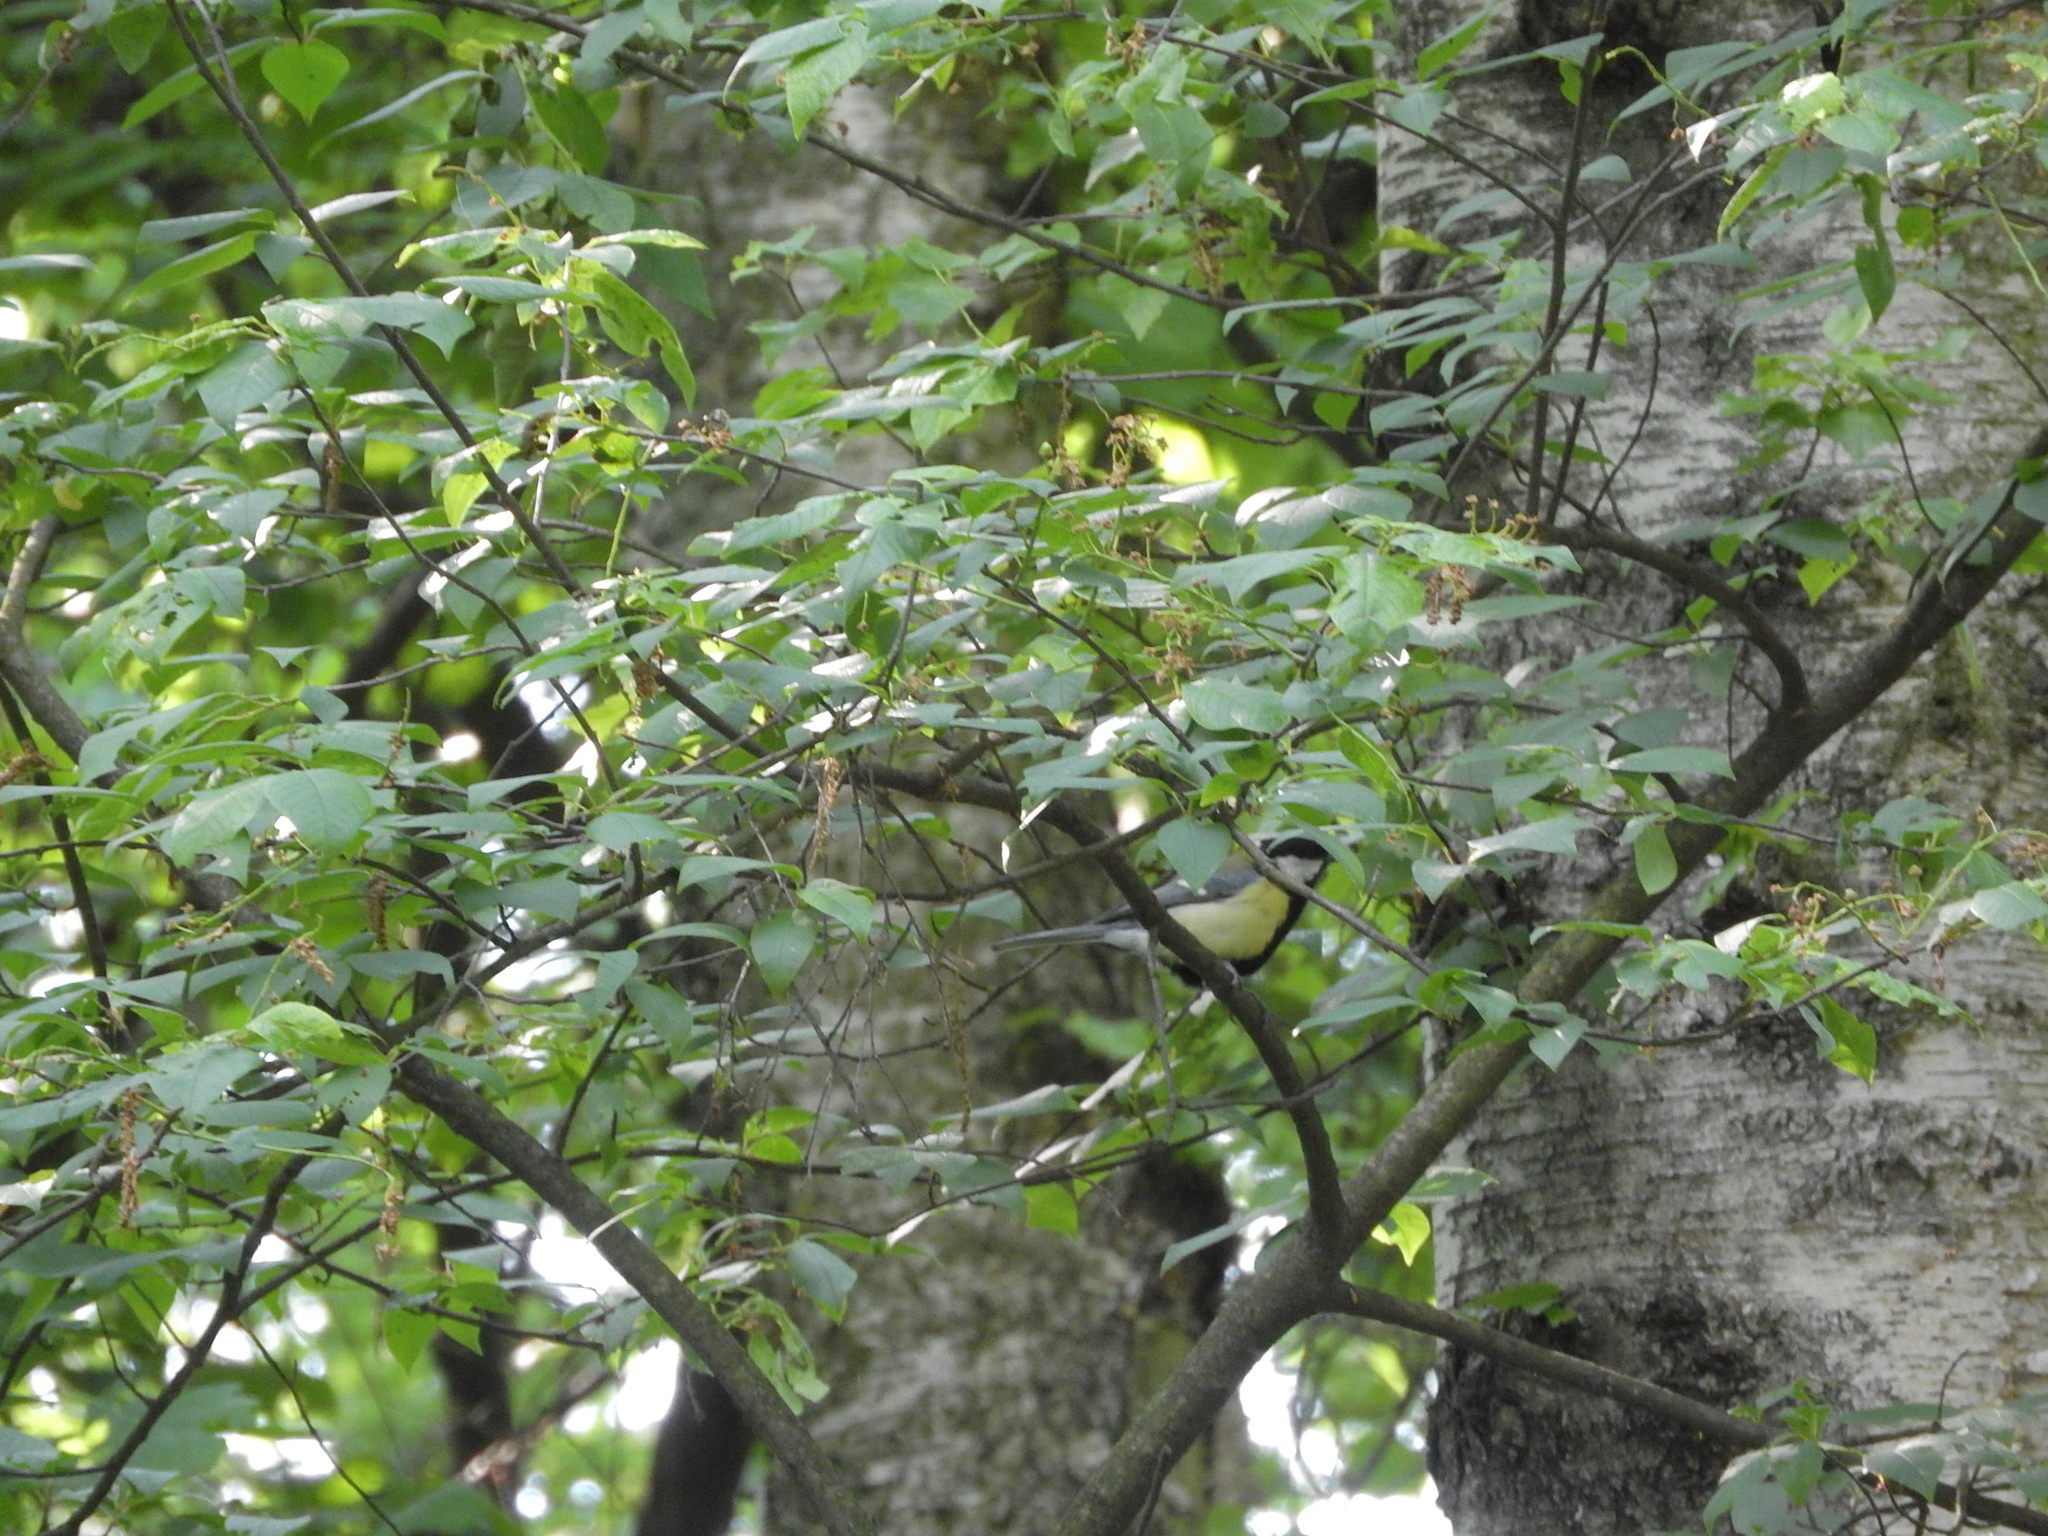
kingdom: Animalia
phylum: Chordata
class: Aves
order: Passeriformes
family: Paridae
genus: Parus
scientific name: Parus major
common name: Great tit
